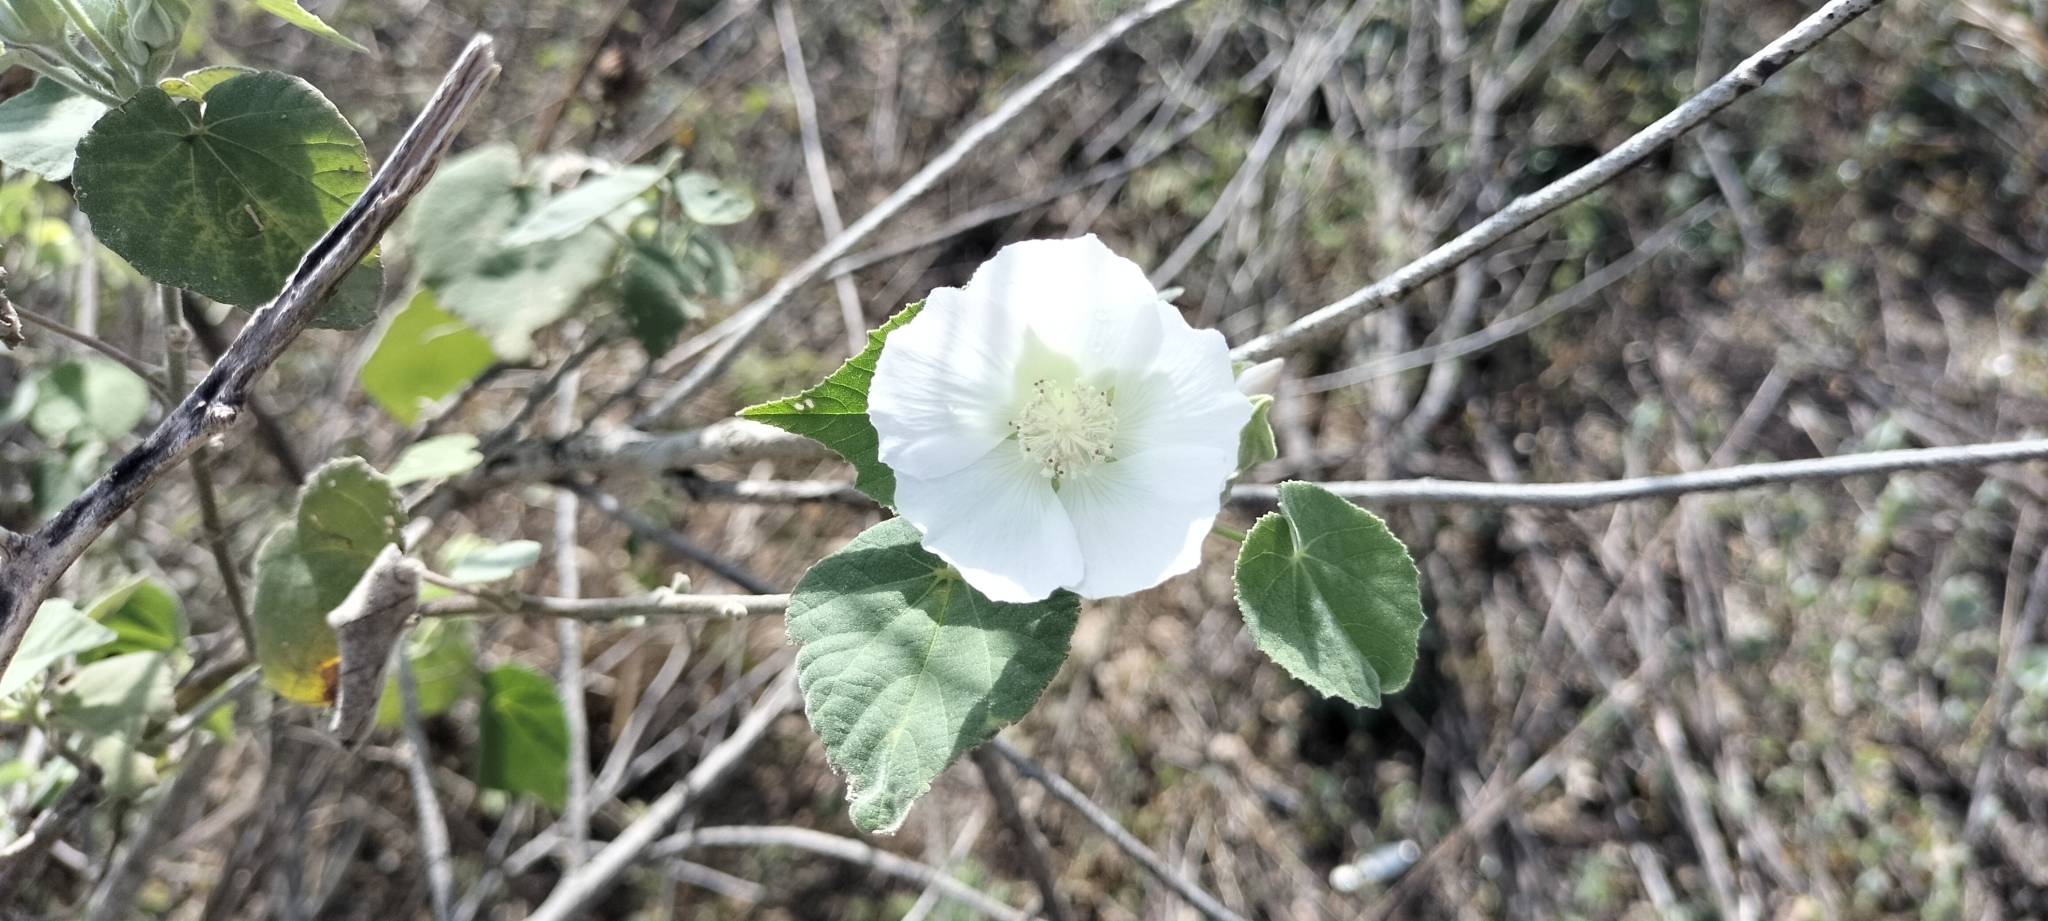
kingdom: Plantae
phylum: Tracheophyta
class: Magnoliopsida
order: Malvales
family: Malvaceae
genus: Abutilon
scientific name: Abutilon glabriflorum
